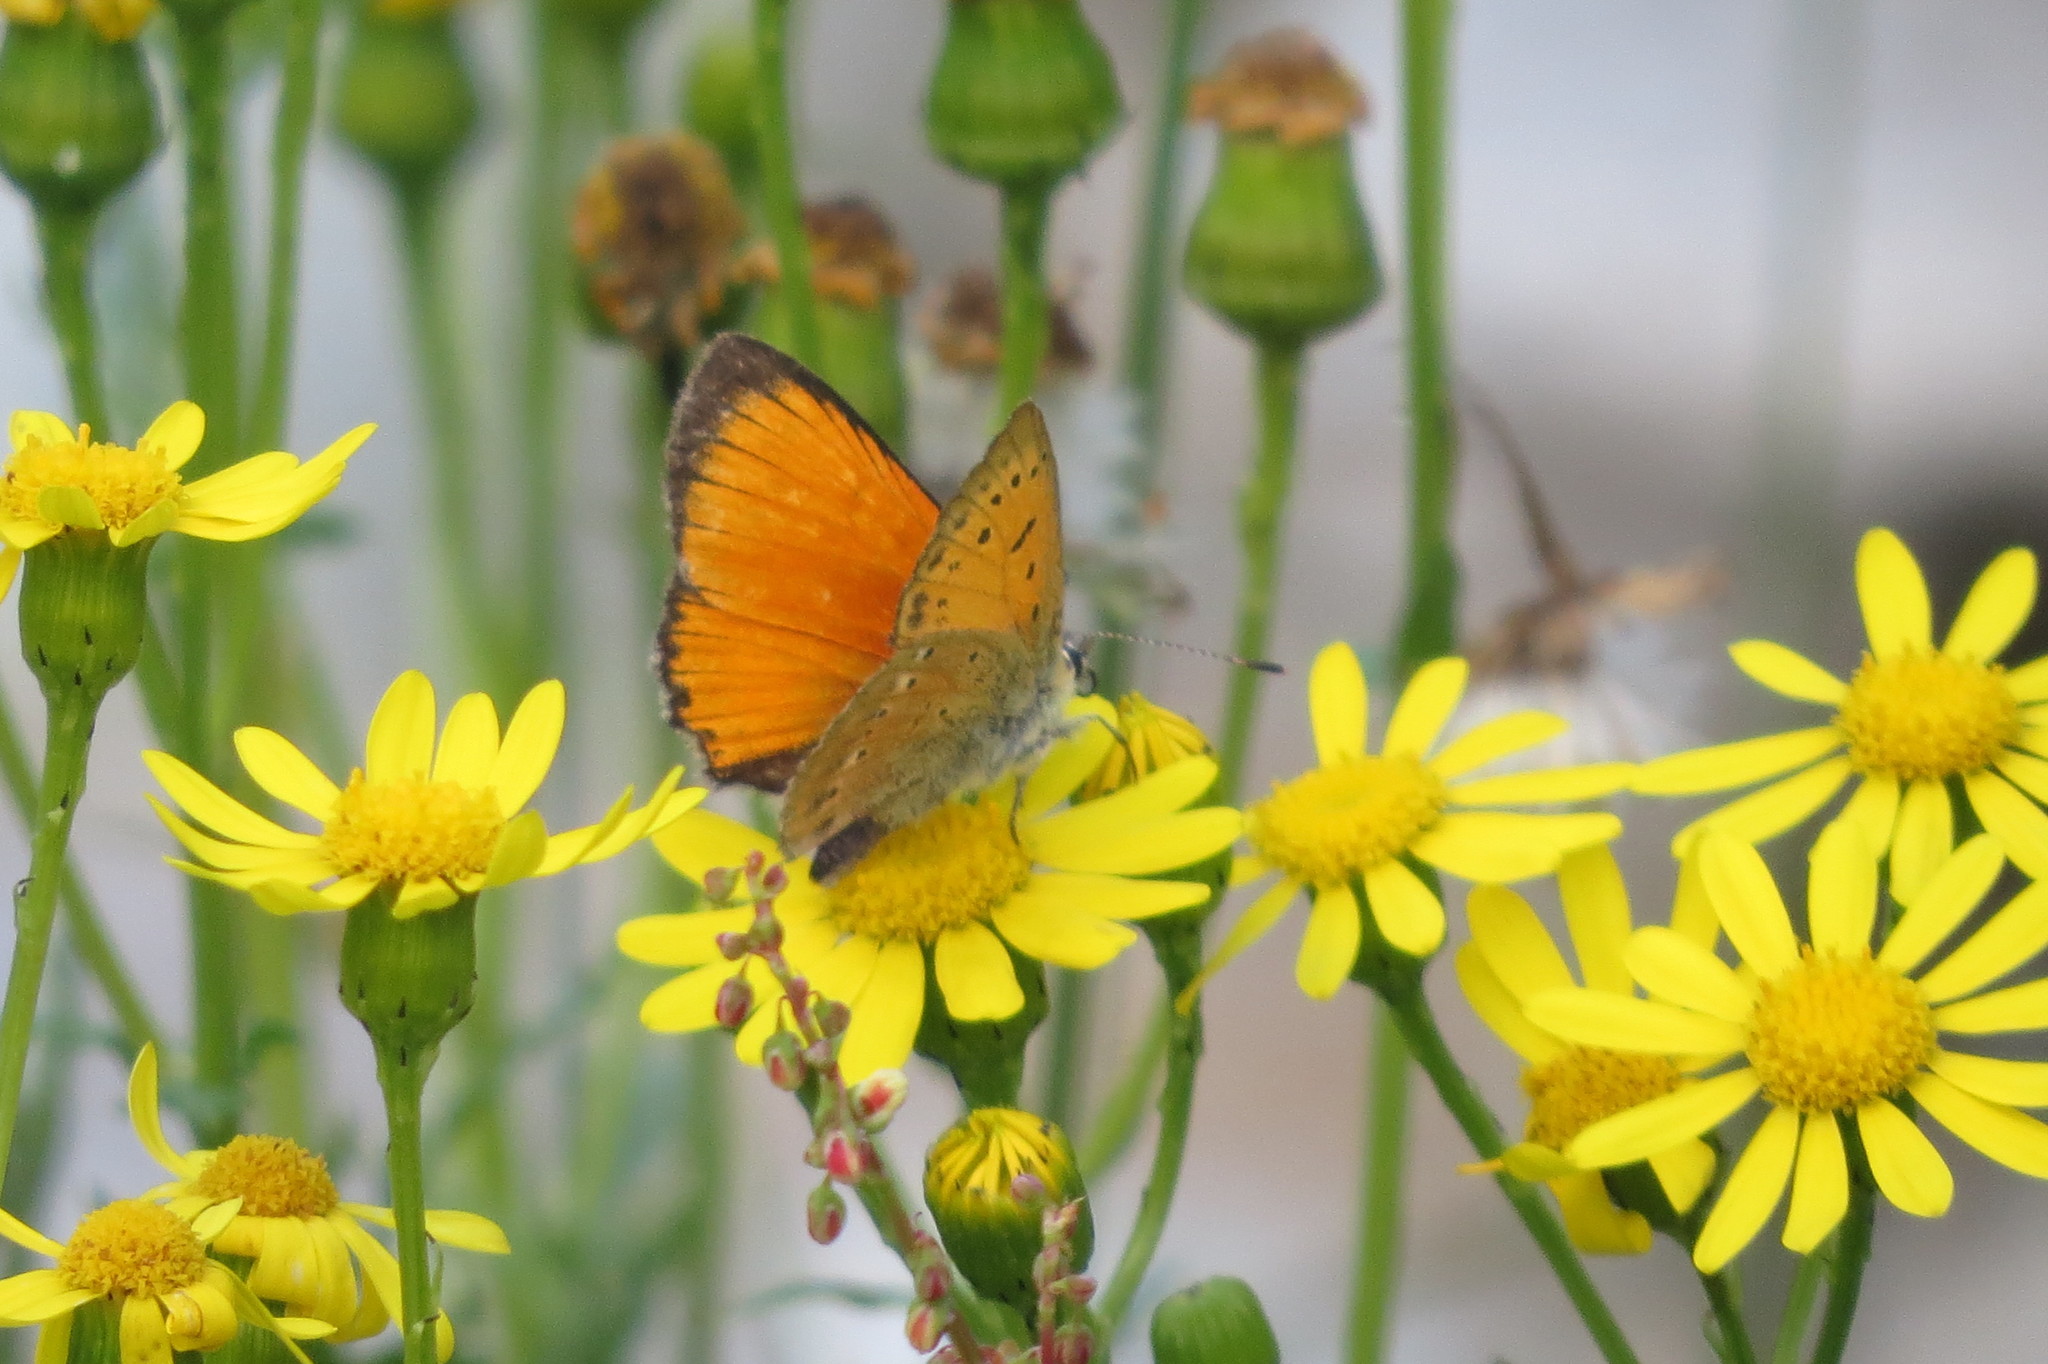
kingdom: Animalia
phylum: Arthropoda
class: Insecta
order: Lepidoptera
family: Lycaenidae
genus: Lycaena
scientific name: Lycaena virgaureae
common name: Scarce copper
